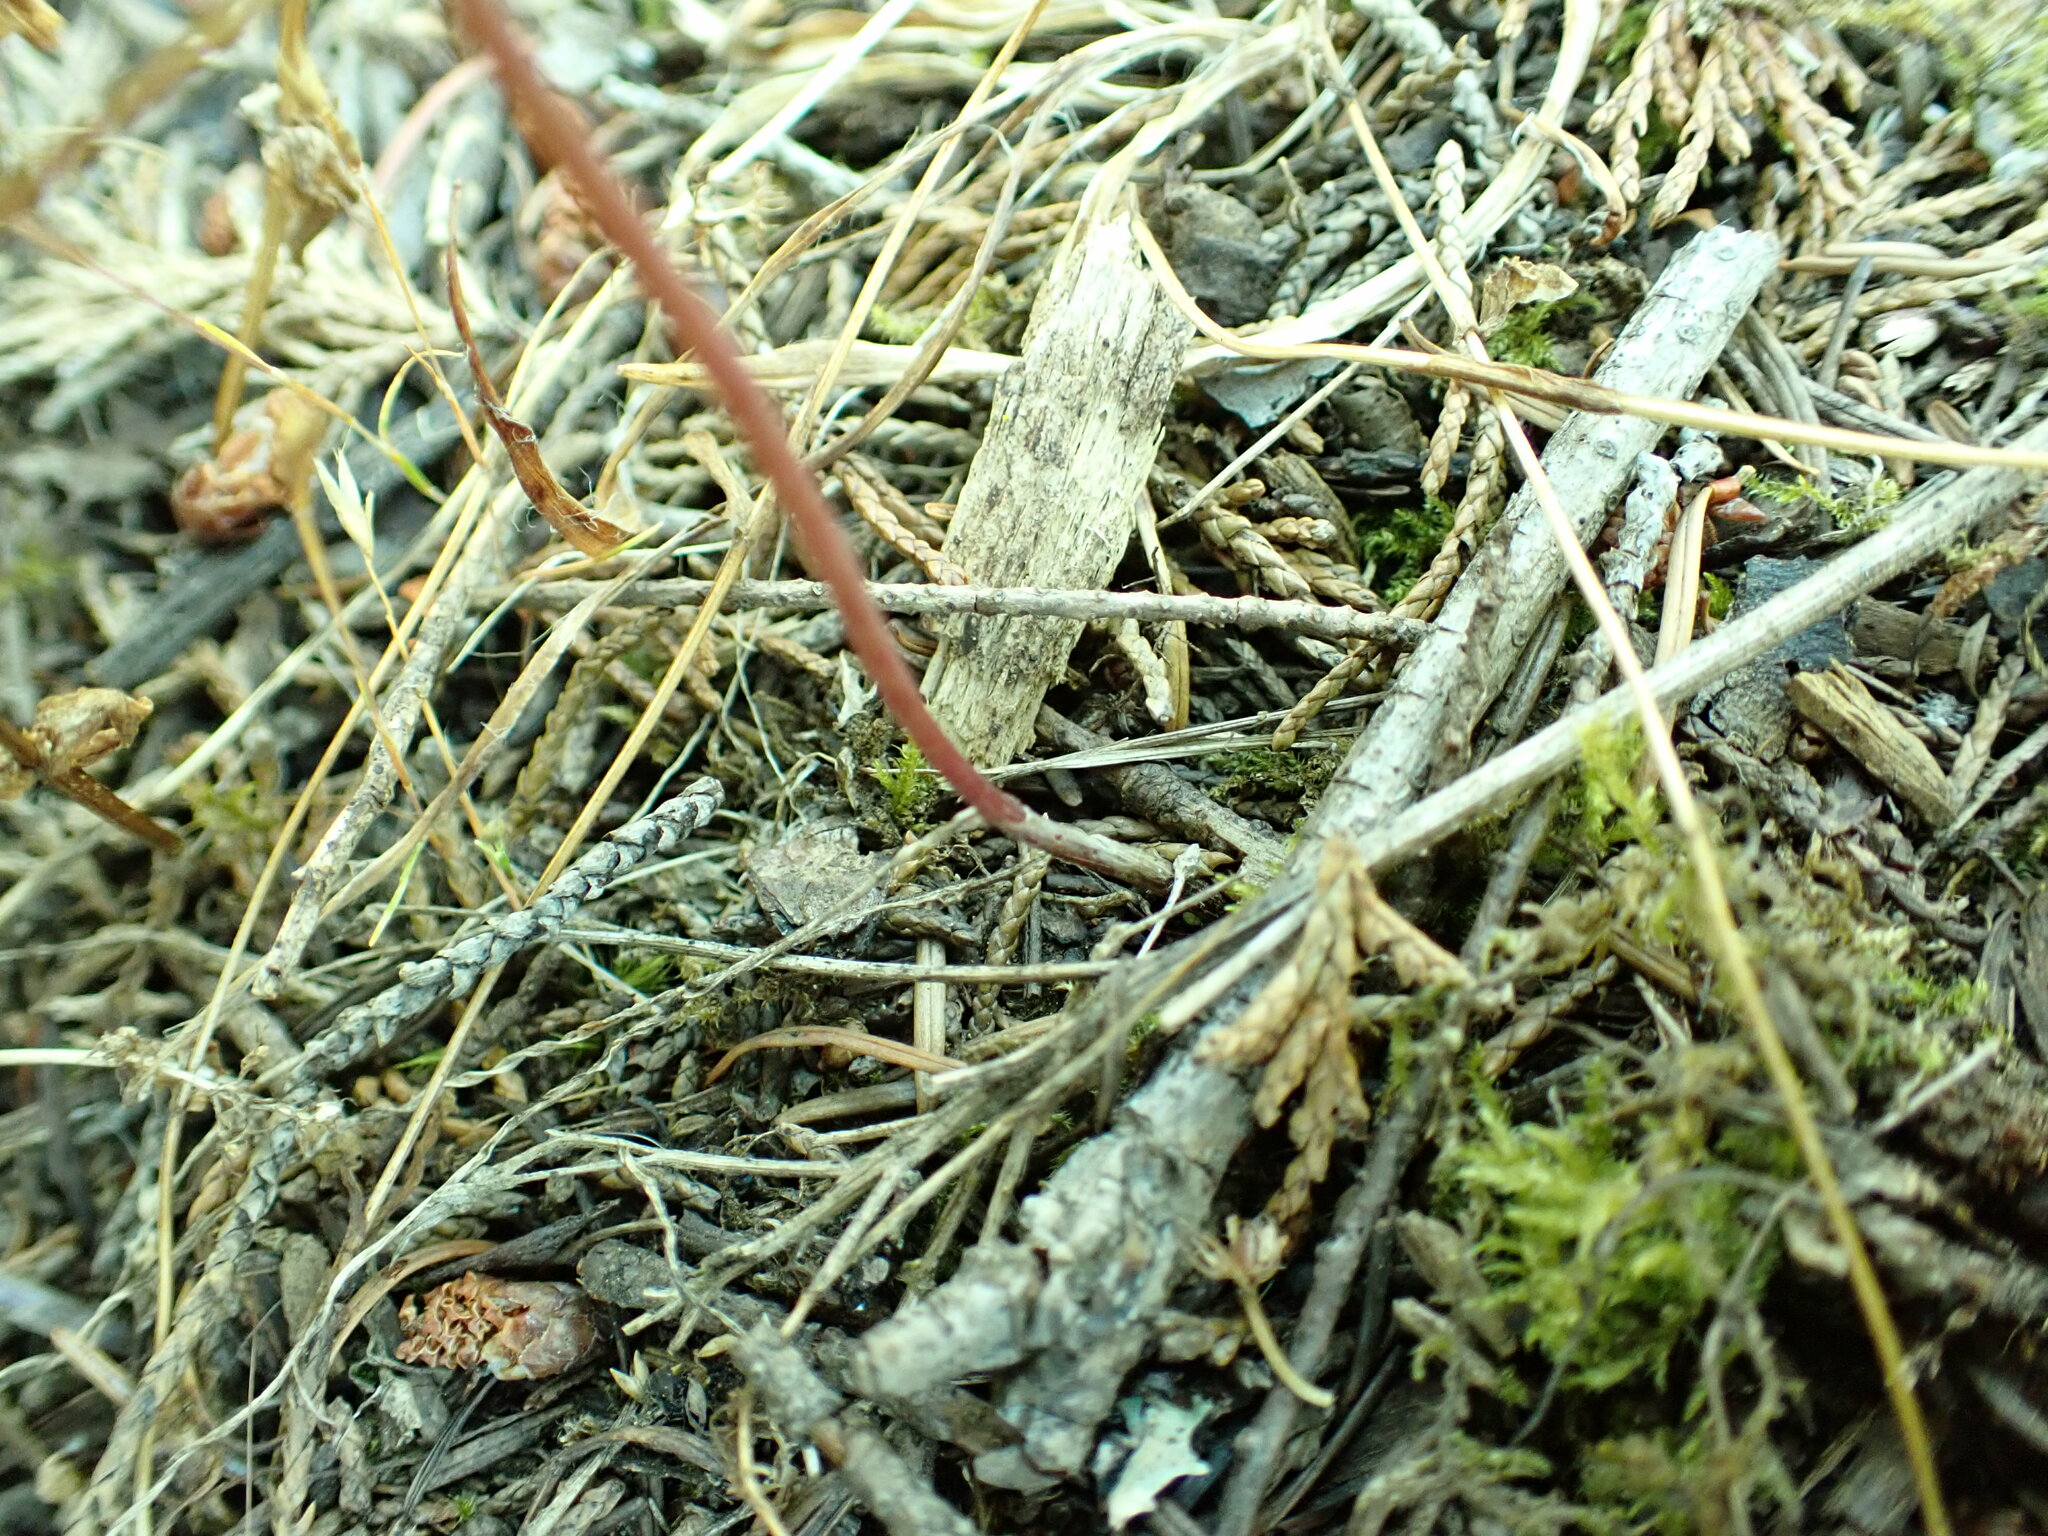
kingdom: Plantae
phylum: Tracheophyta
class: Liliopsida
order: Asparagales
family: Amaryllidaceae
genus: Allium
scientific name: Allium acuminatum
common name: Hooker's onion
